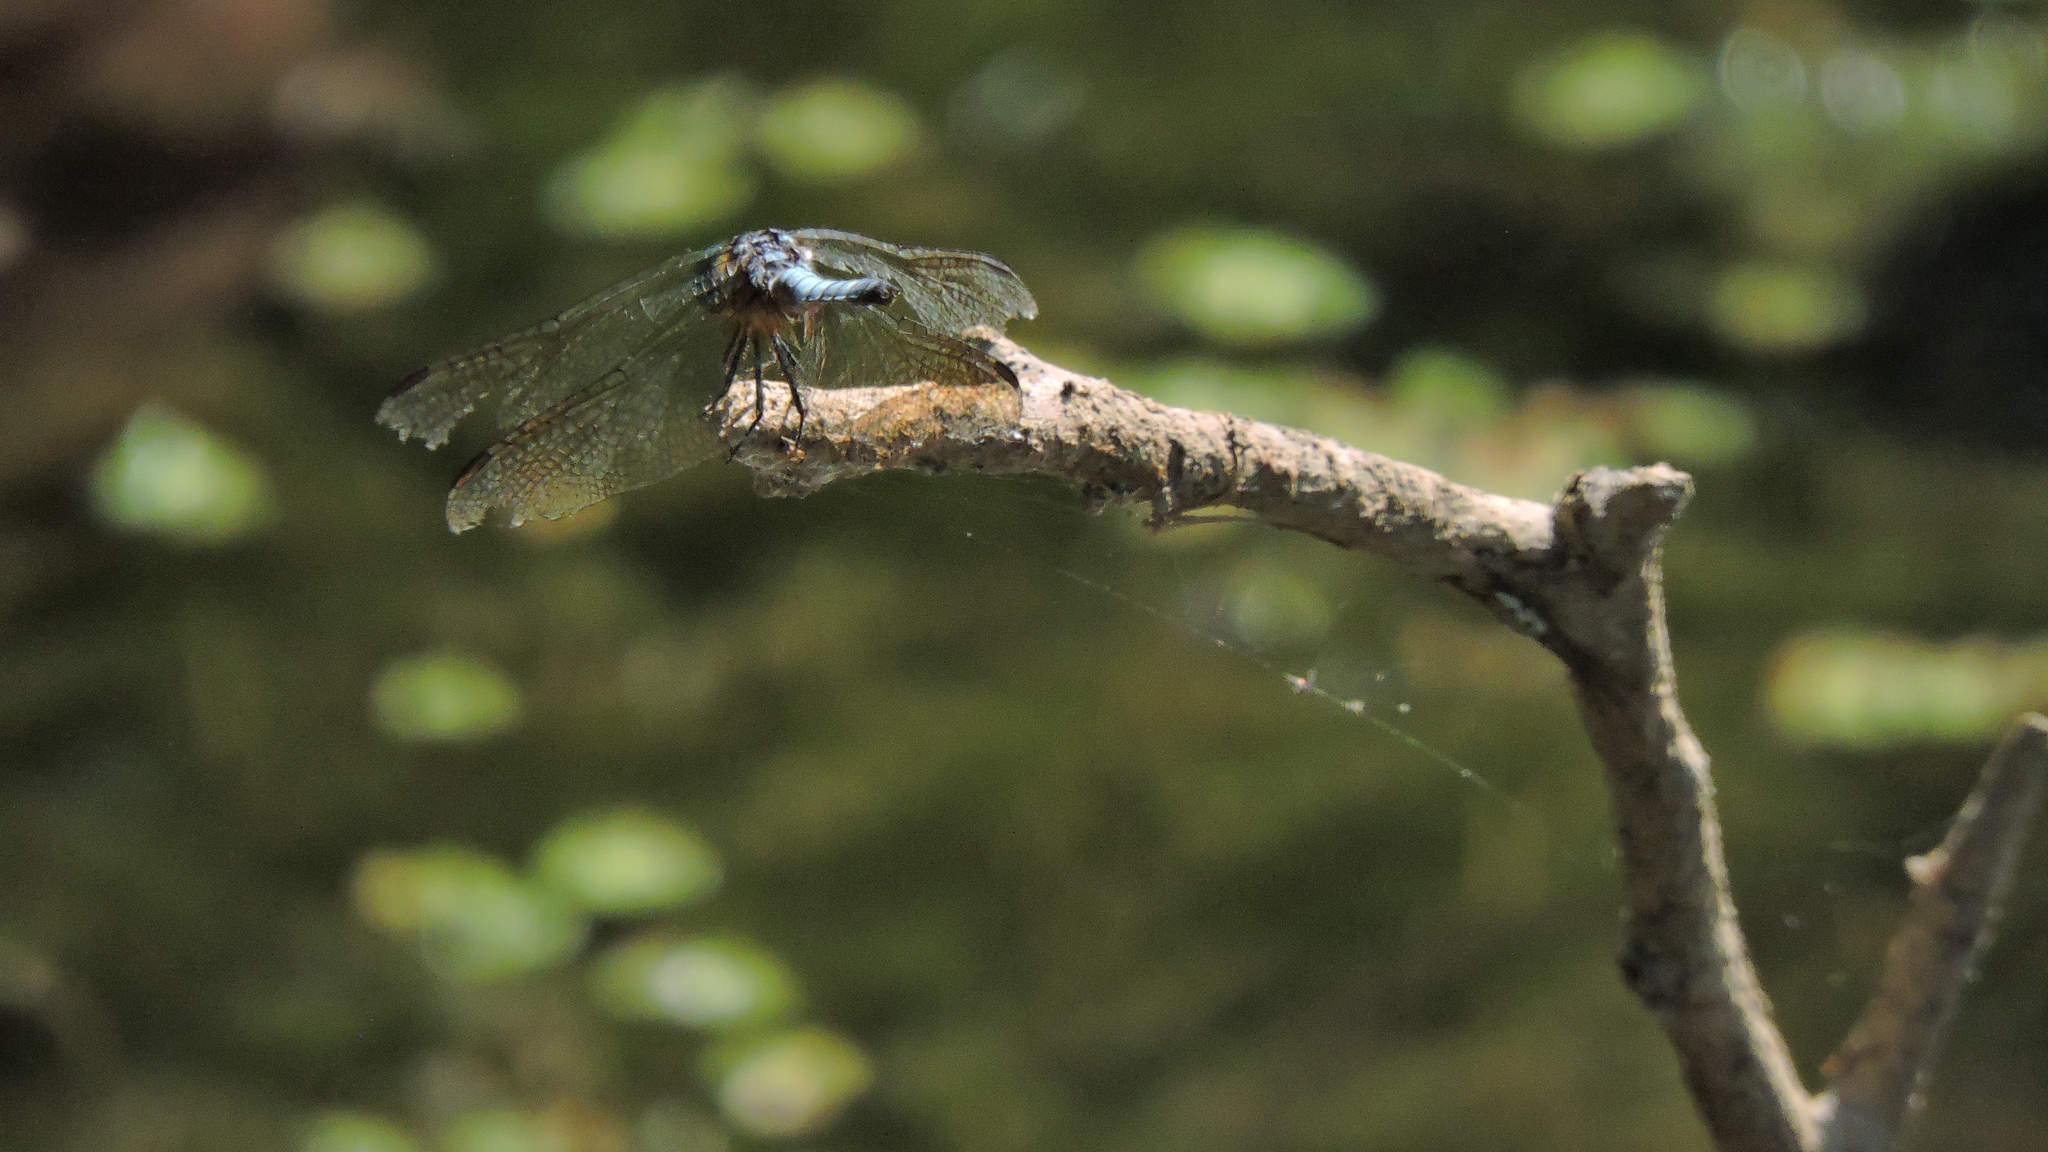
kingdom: Animalia
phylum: Arthropoda
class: Insecta
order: Odonata
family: Libellulidae
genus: Pachydiplax
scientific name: Pachydiplax longipennis
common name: Blue dasher
